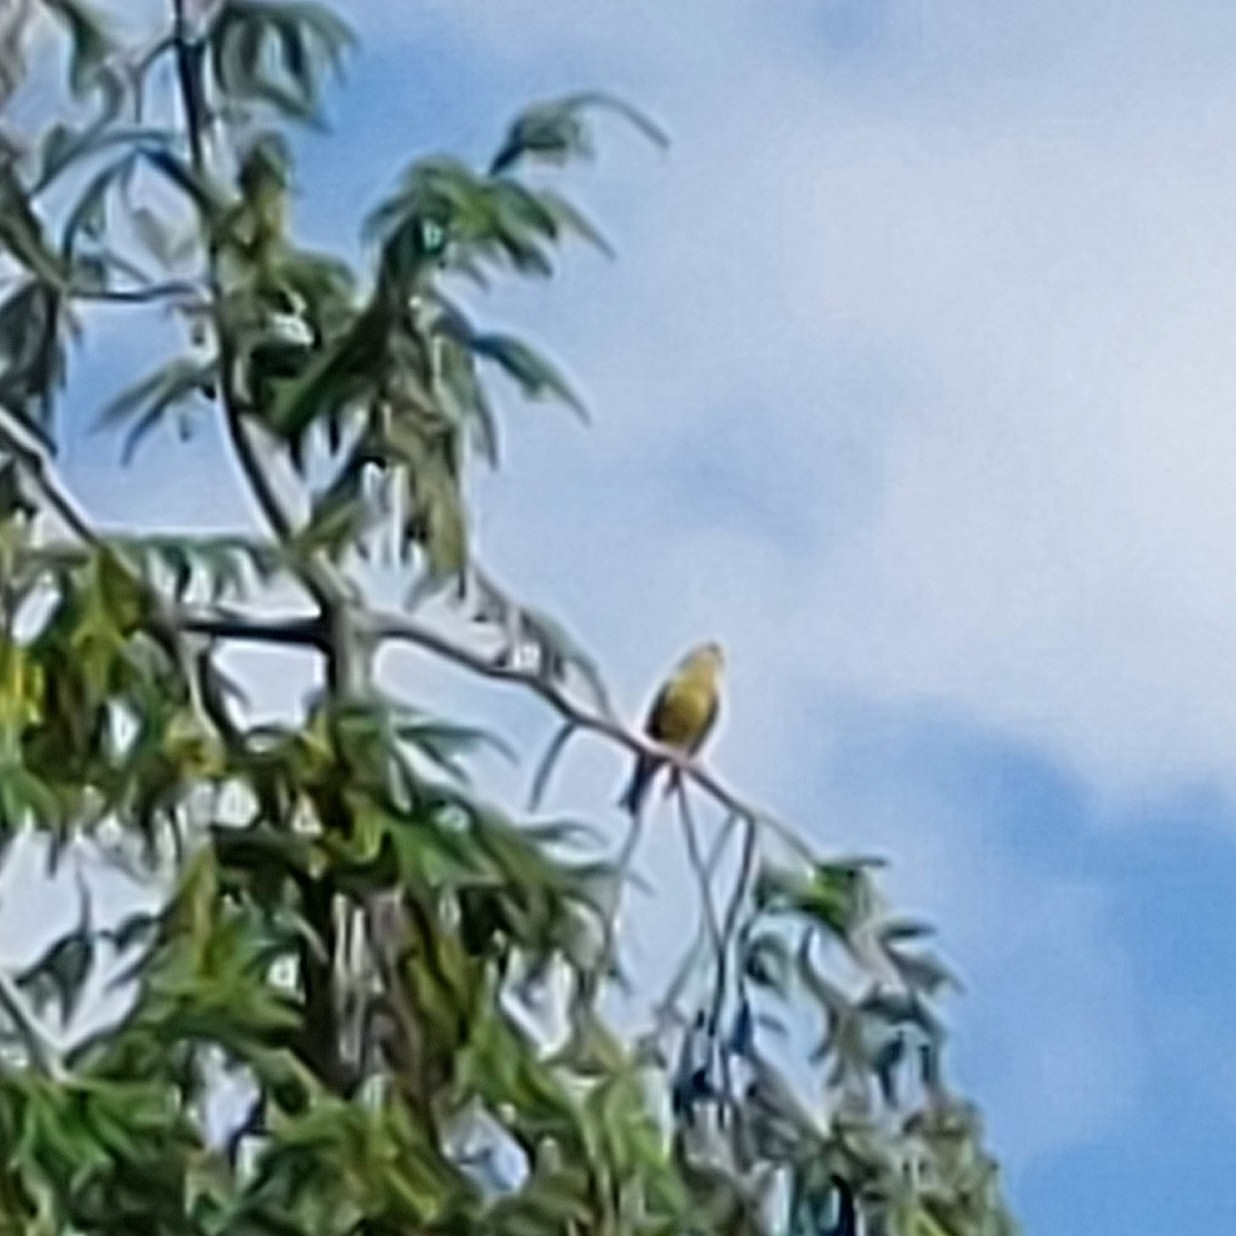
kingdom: Plantae
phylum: Tracheophyta
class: Liliopsida
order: Poales
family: Poaceae
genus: Chloris
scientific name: Chloris chloris
